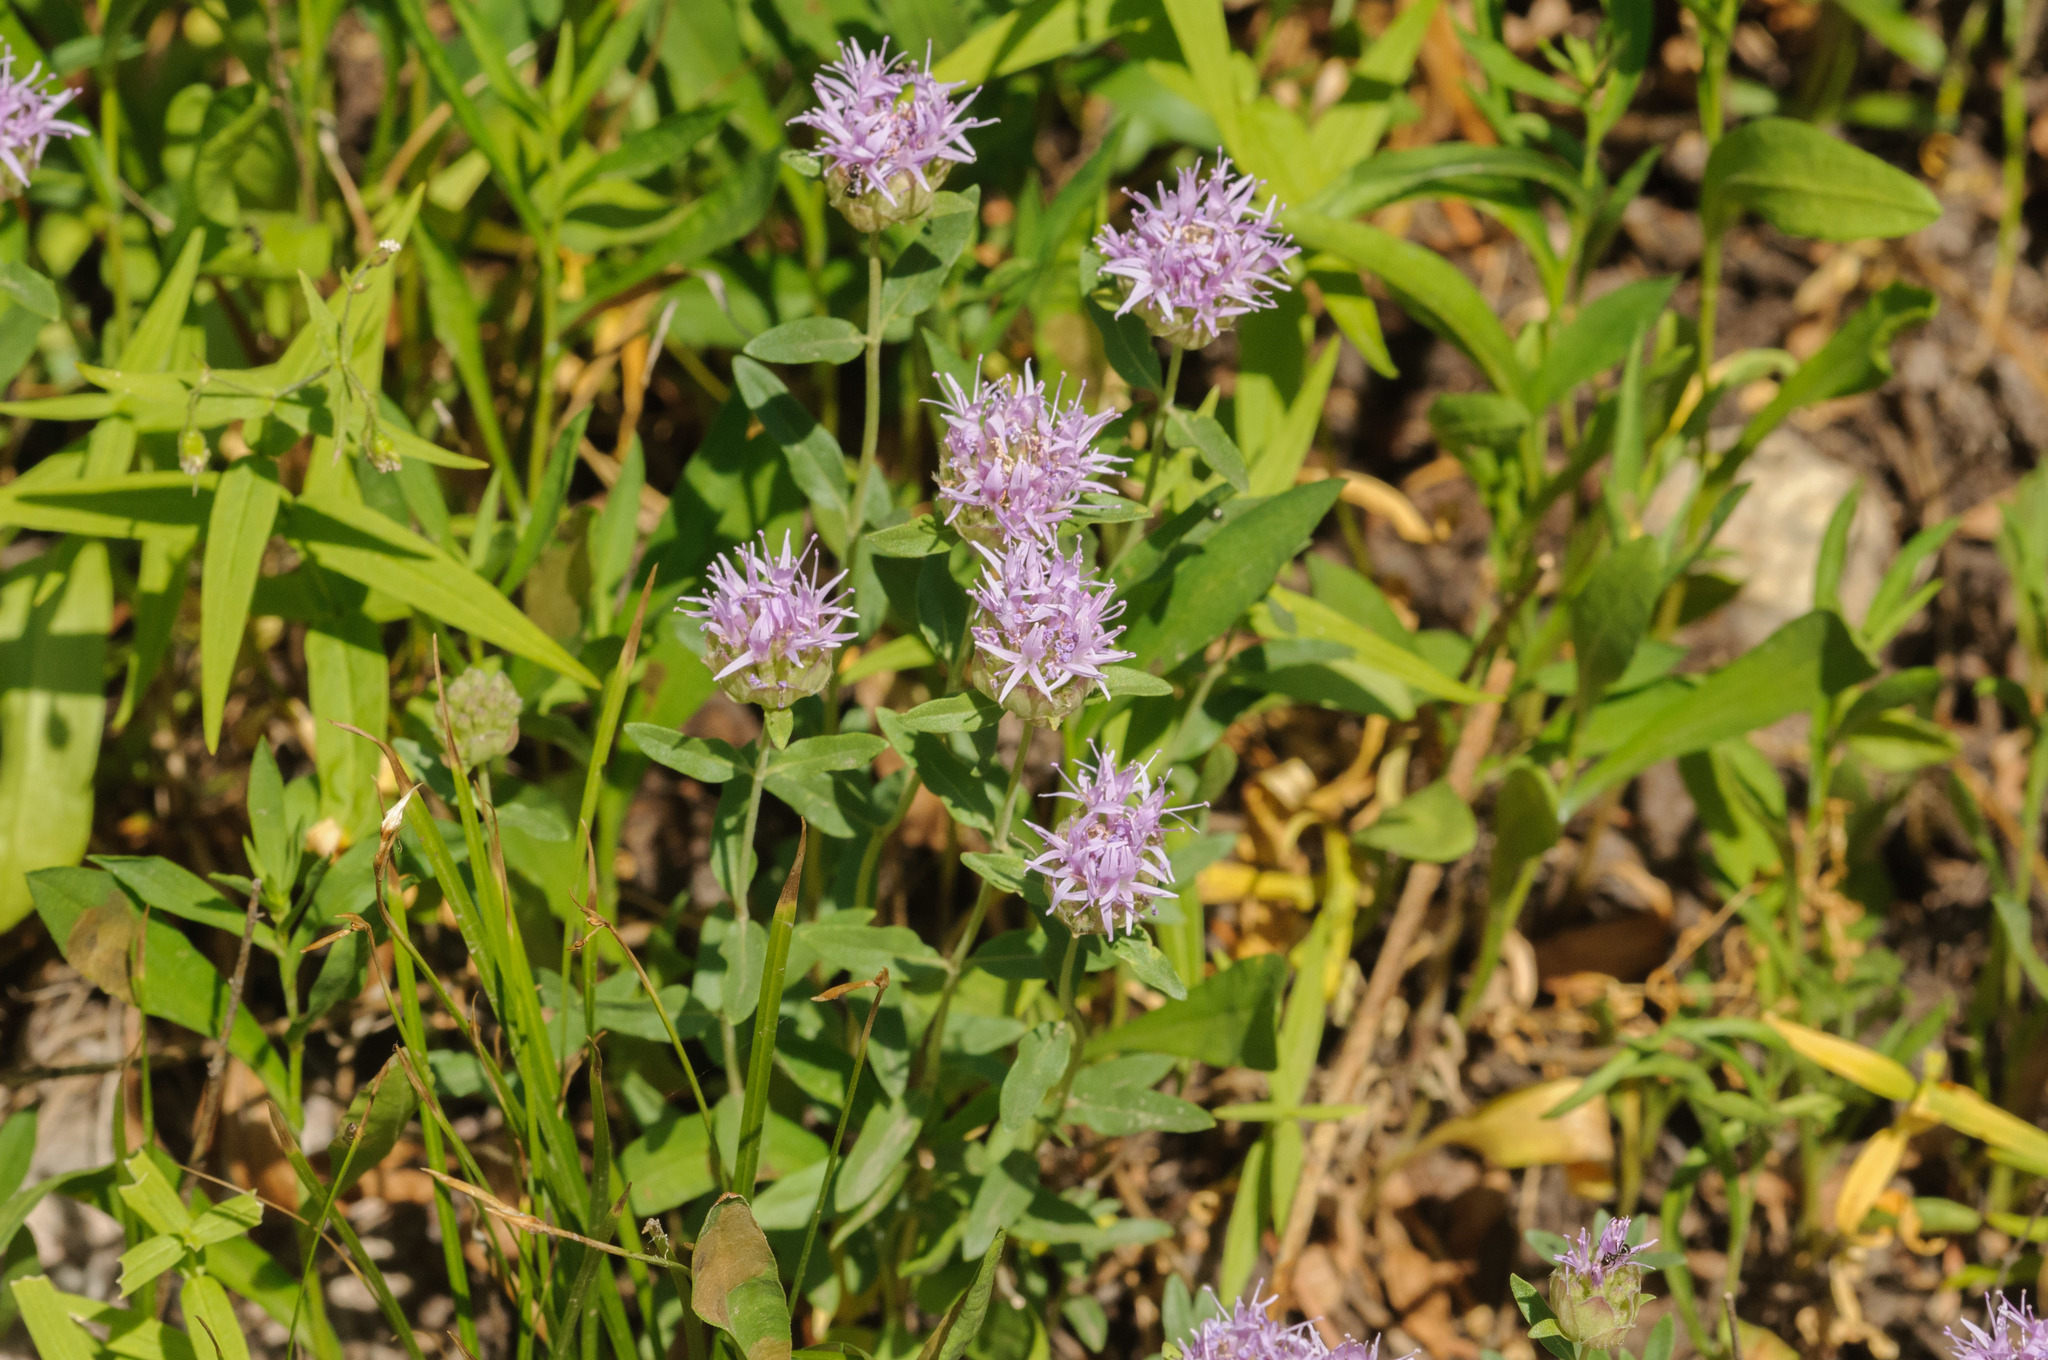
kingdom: Plantae
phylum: Tracheophyta
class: Magnoliopsida
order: Lamiales
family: Lamiaceae
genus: Monardella
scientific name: Monardella odoratissima
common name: Pacific monardella
